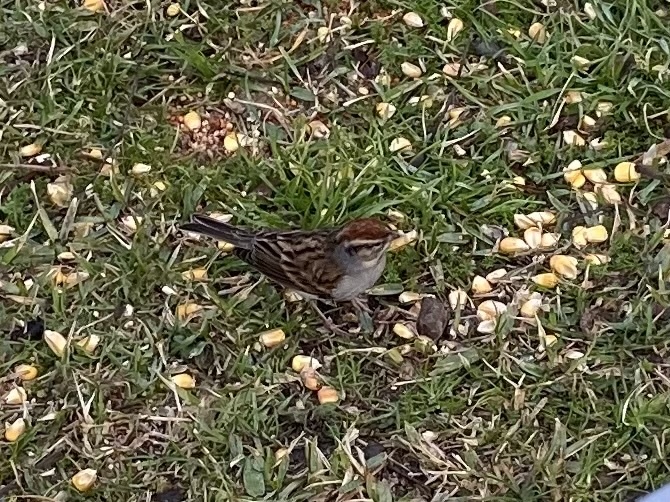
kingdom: Animalia
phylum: Chordata
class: Aves
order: Passeriformes
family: Passerellidae
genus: Spizella
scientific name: Spizella passerina
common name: Chipping sparrow
